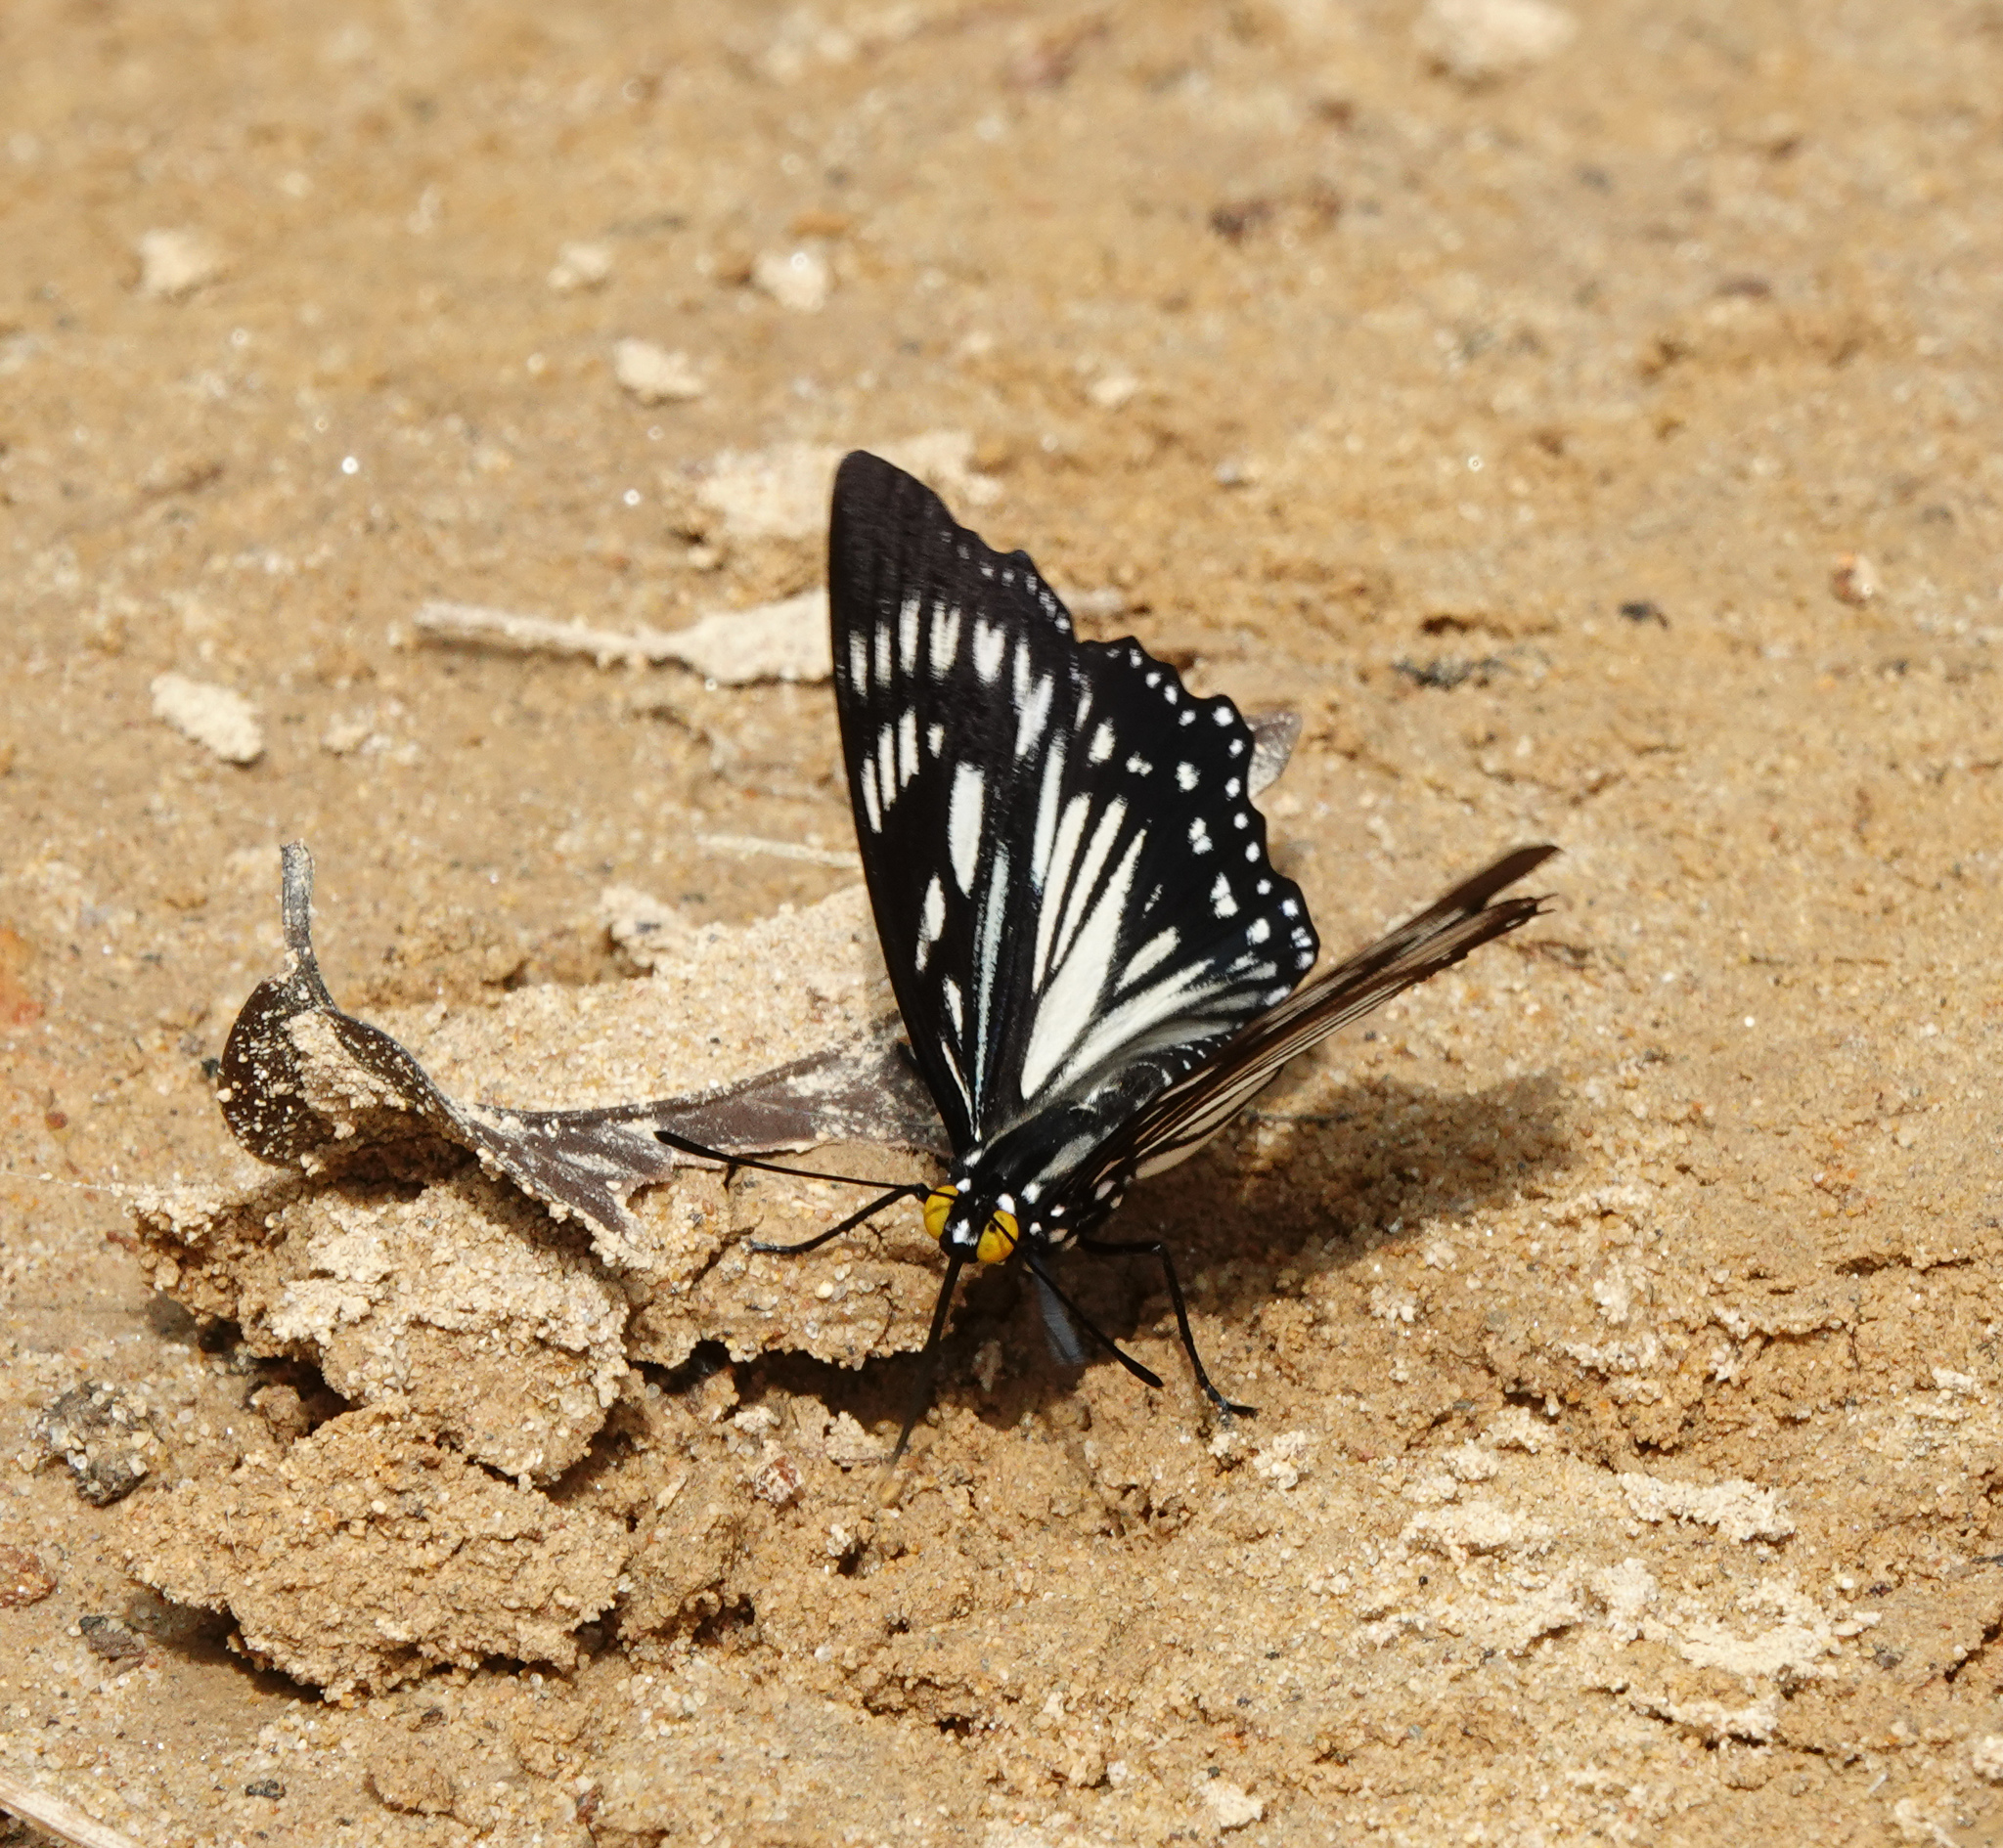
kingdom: Animalia
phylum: Arthropoda
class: Insecta
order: Lepidoptera
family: Nymphalidae
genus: Euripus
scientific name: Euripus nyctelius
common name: Courtesan
